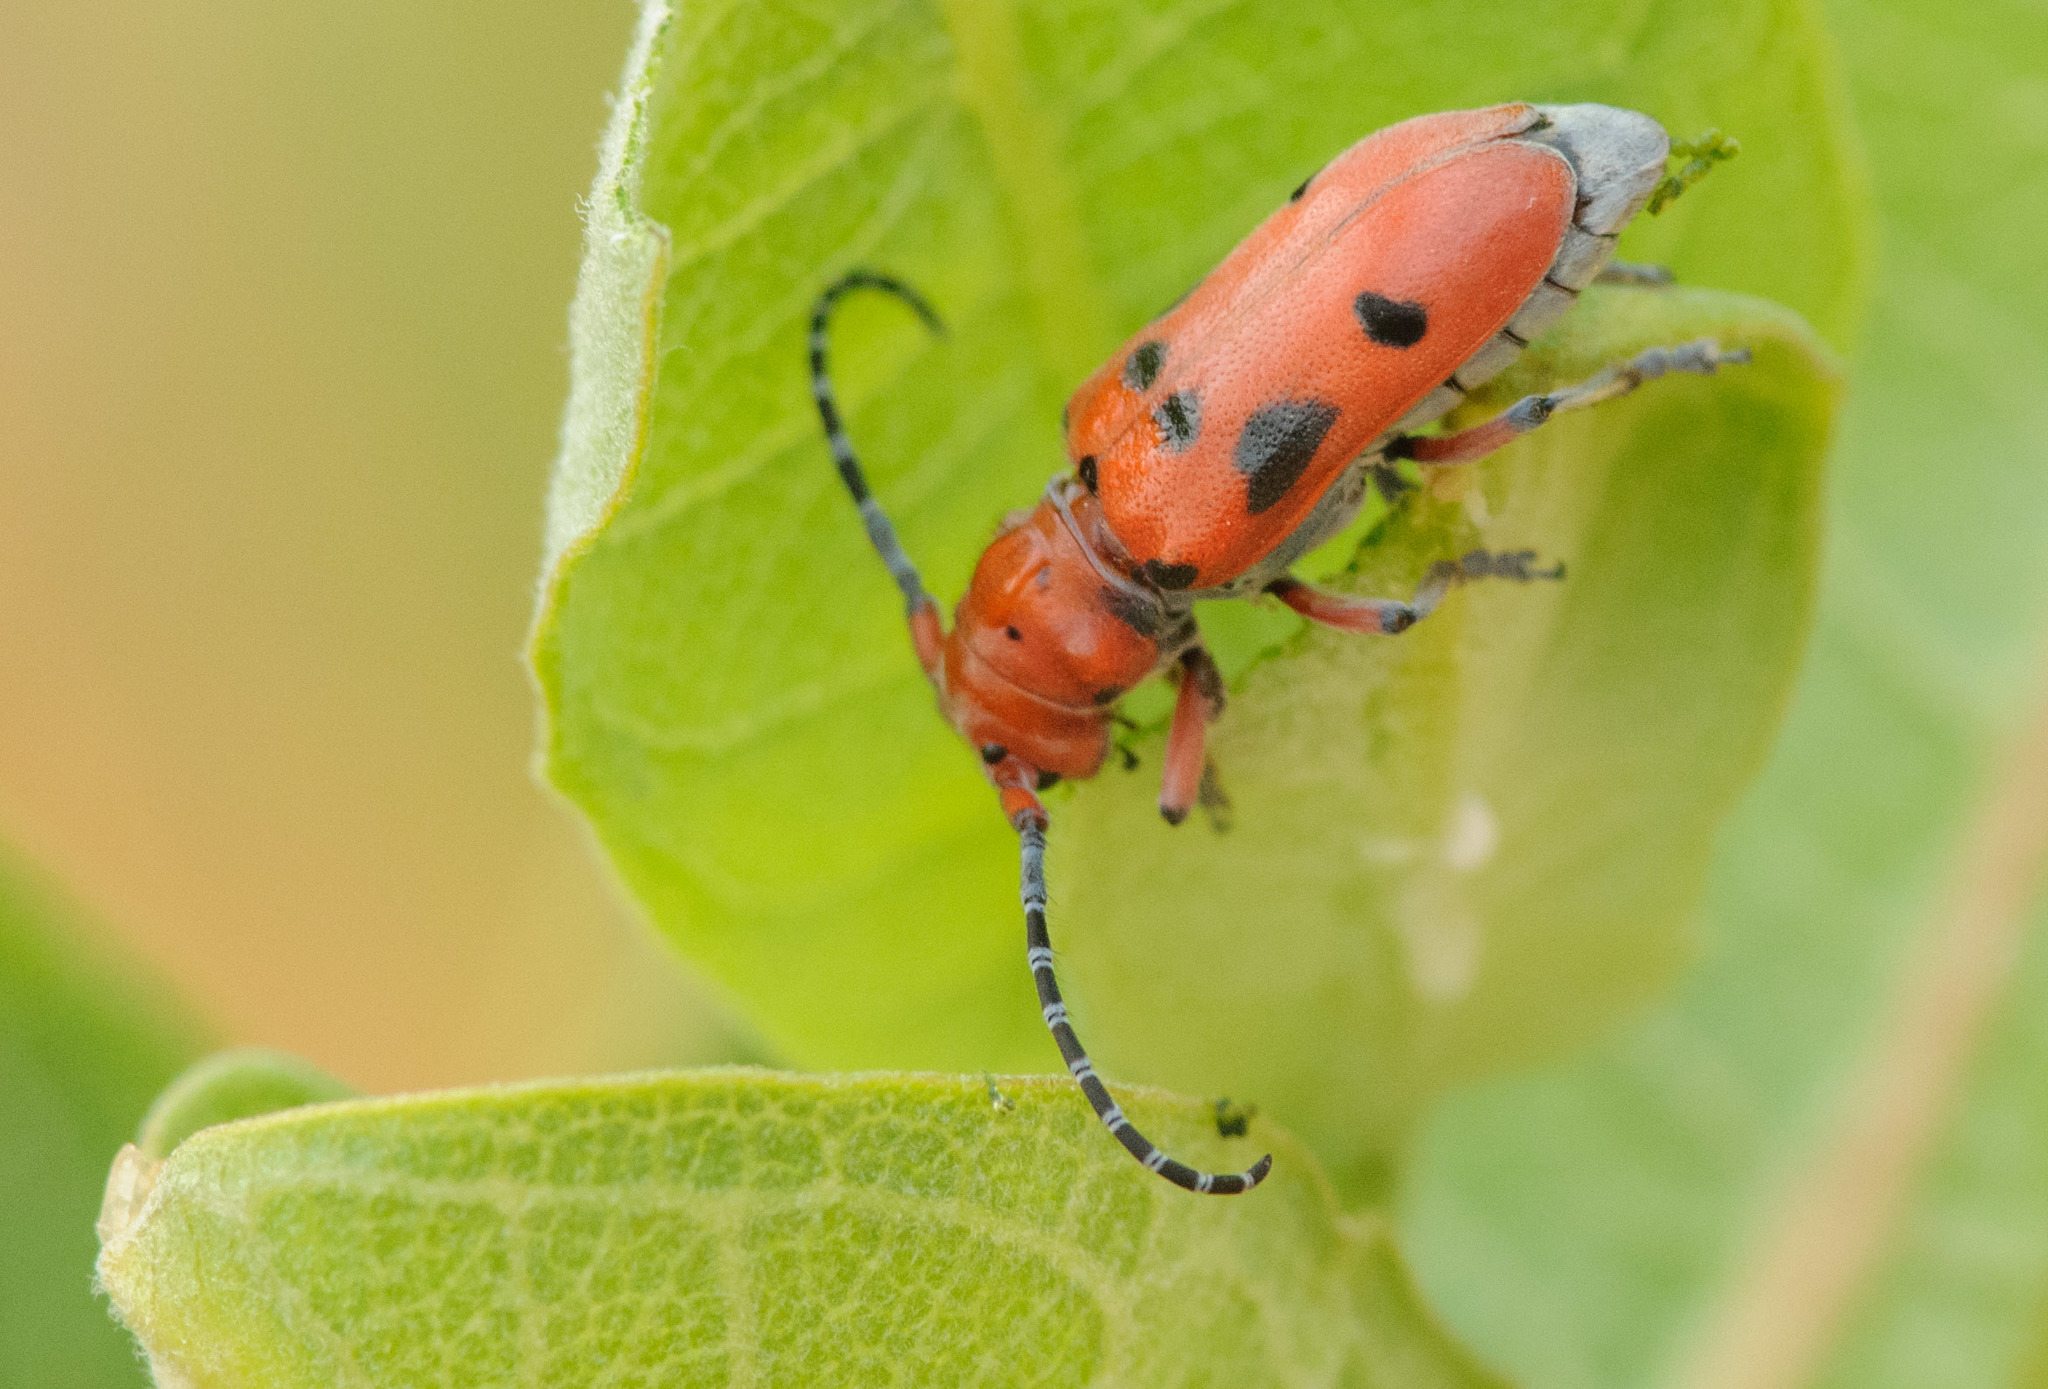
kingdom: Animalia
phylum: Arthropoda
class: Insecta
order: Coleoptera
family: Cerambycidae
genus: Tetraopes
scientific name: Tetraopes femoratus
